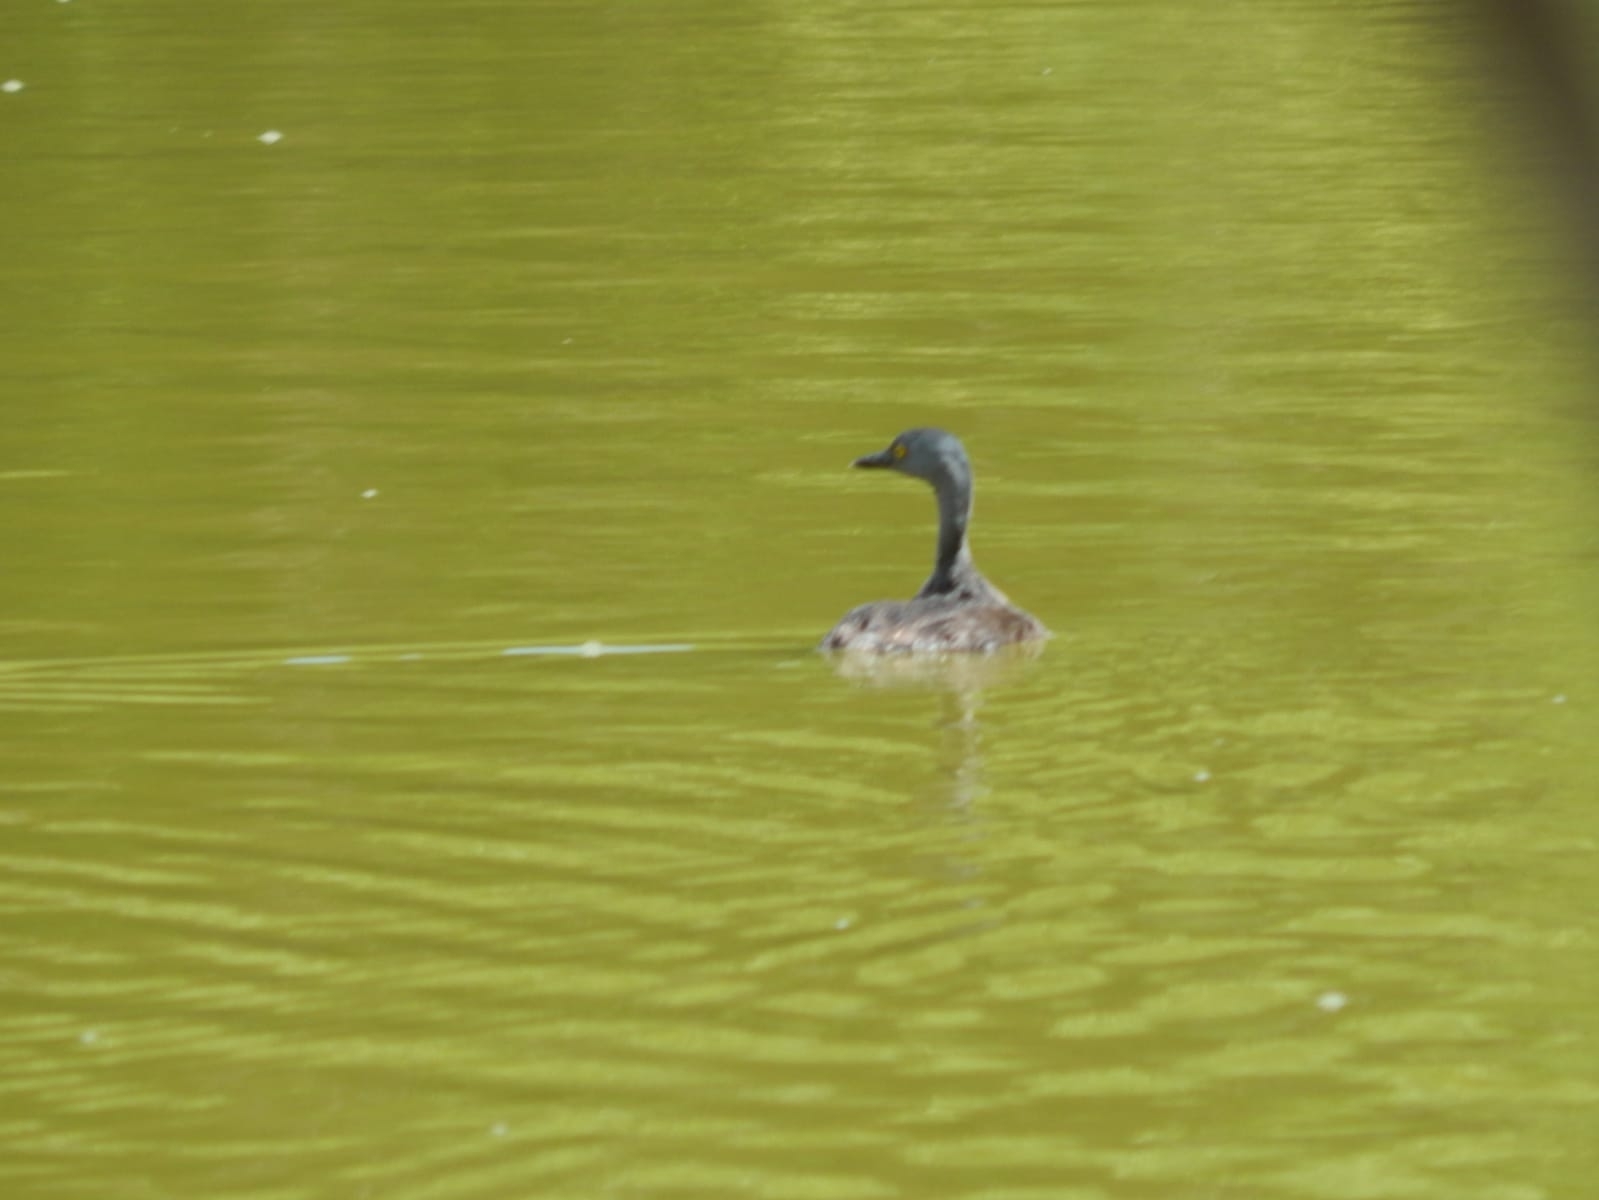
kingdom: Animalia
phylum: Chordata
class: Aves
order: Podicipediformes
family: Podicipedidae
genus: Tachybaptus
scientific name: Tachybaptus dominicus
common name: Least grebe
